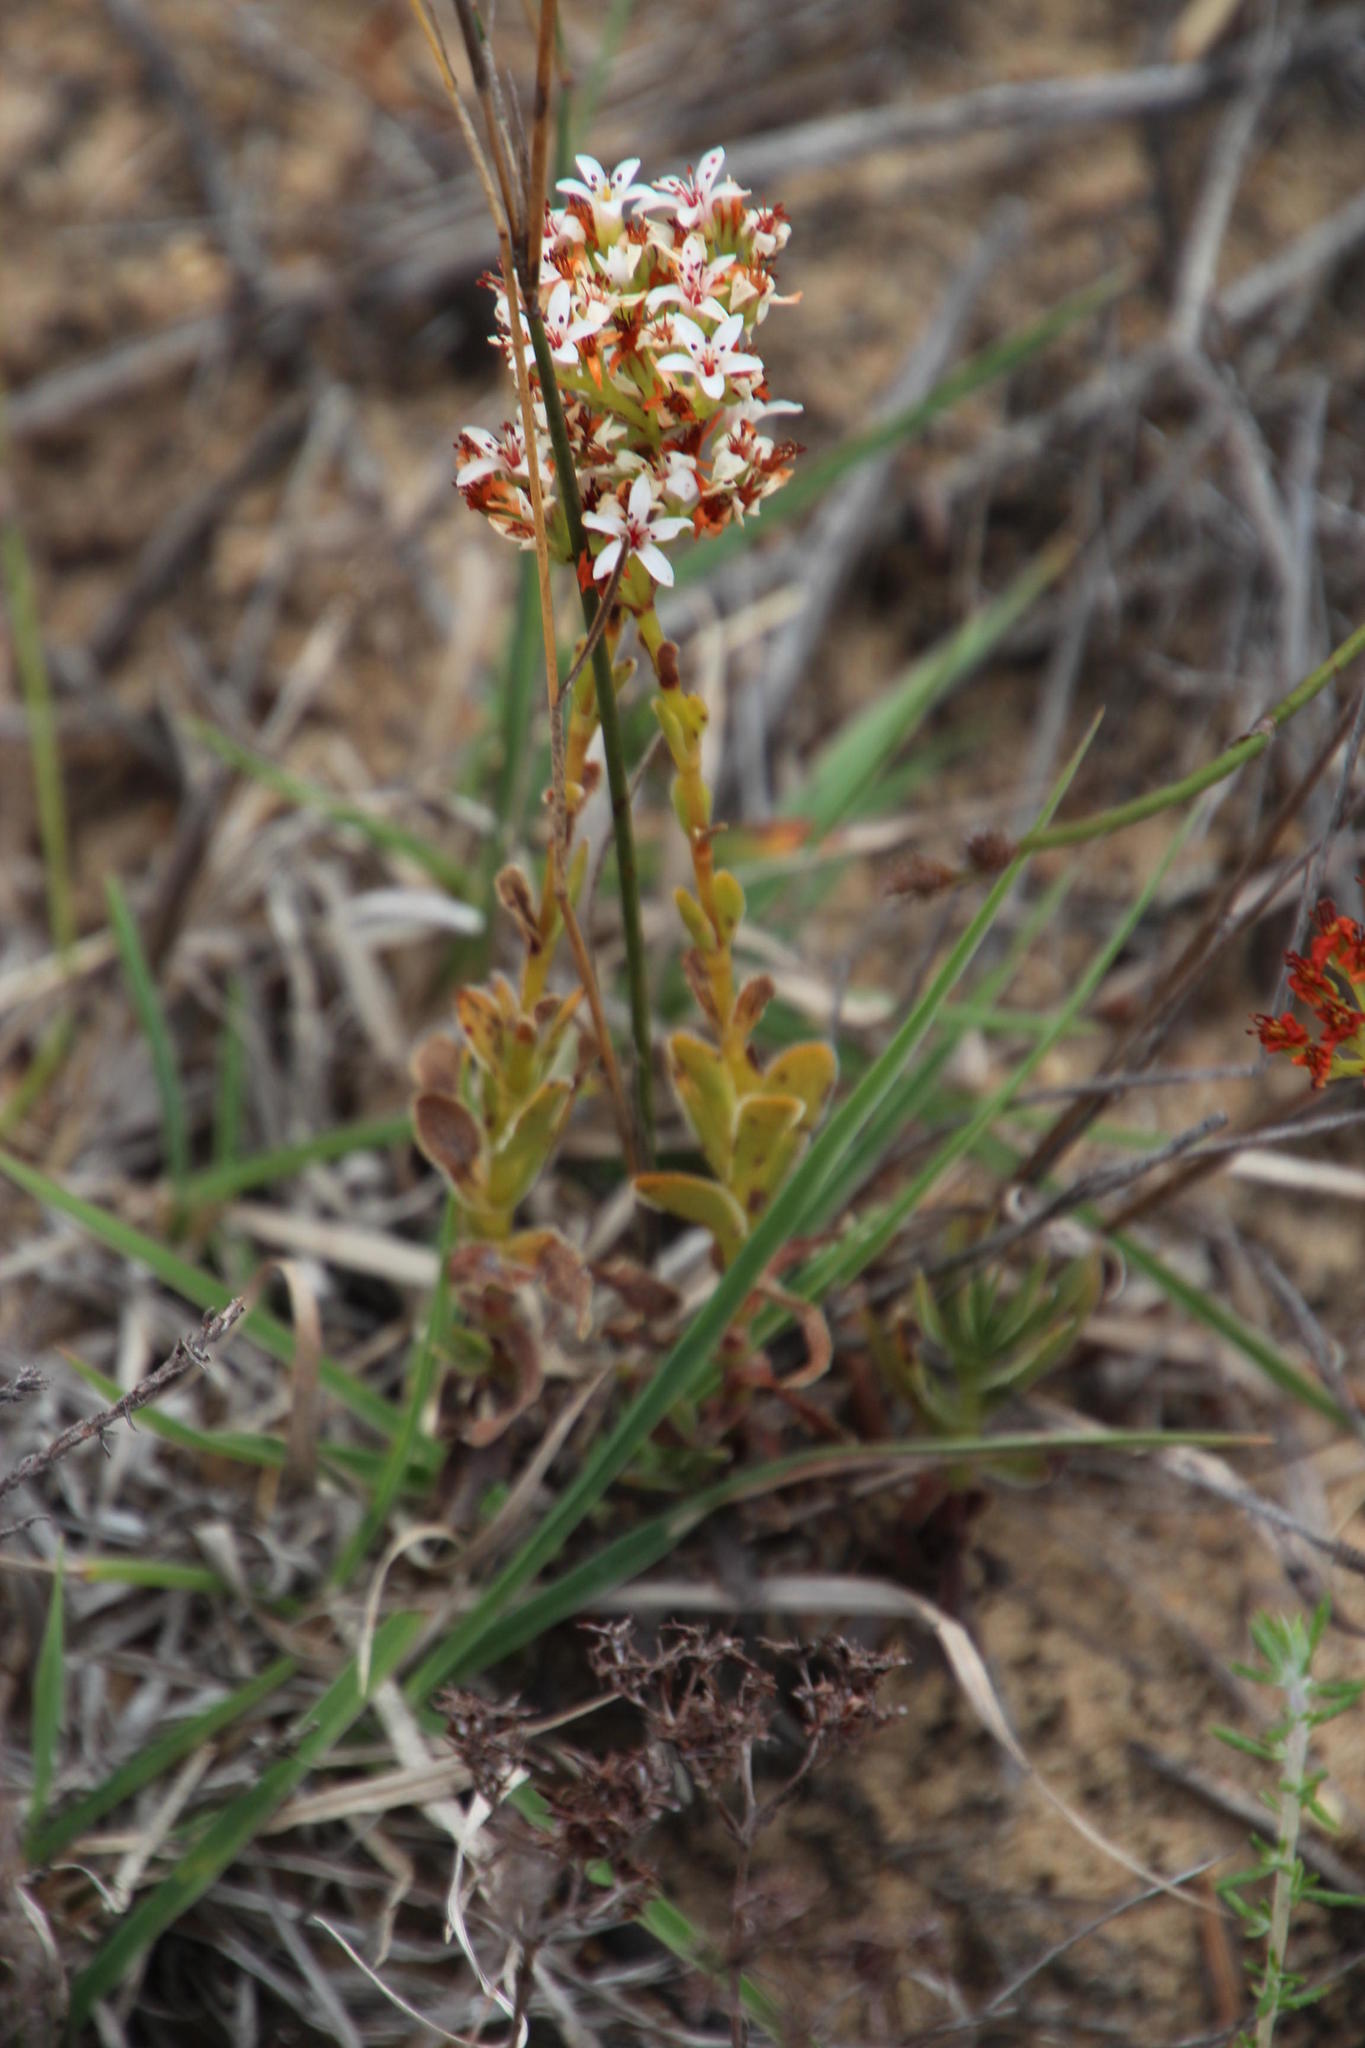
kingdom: Plantae
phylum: Tracheophyta
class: Magnoliopsida
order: Saxifragales
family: Crassulaceae
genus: Crassula
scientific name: Crassula fallax
